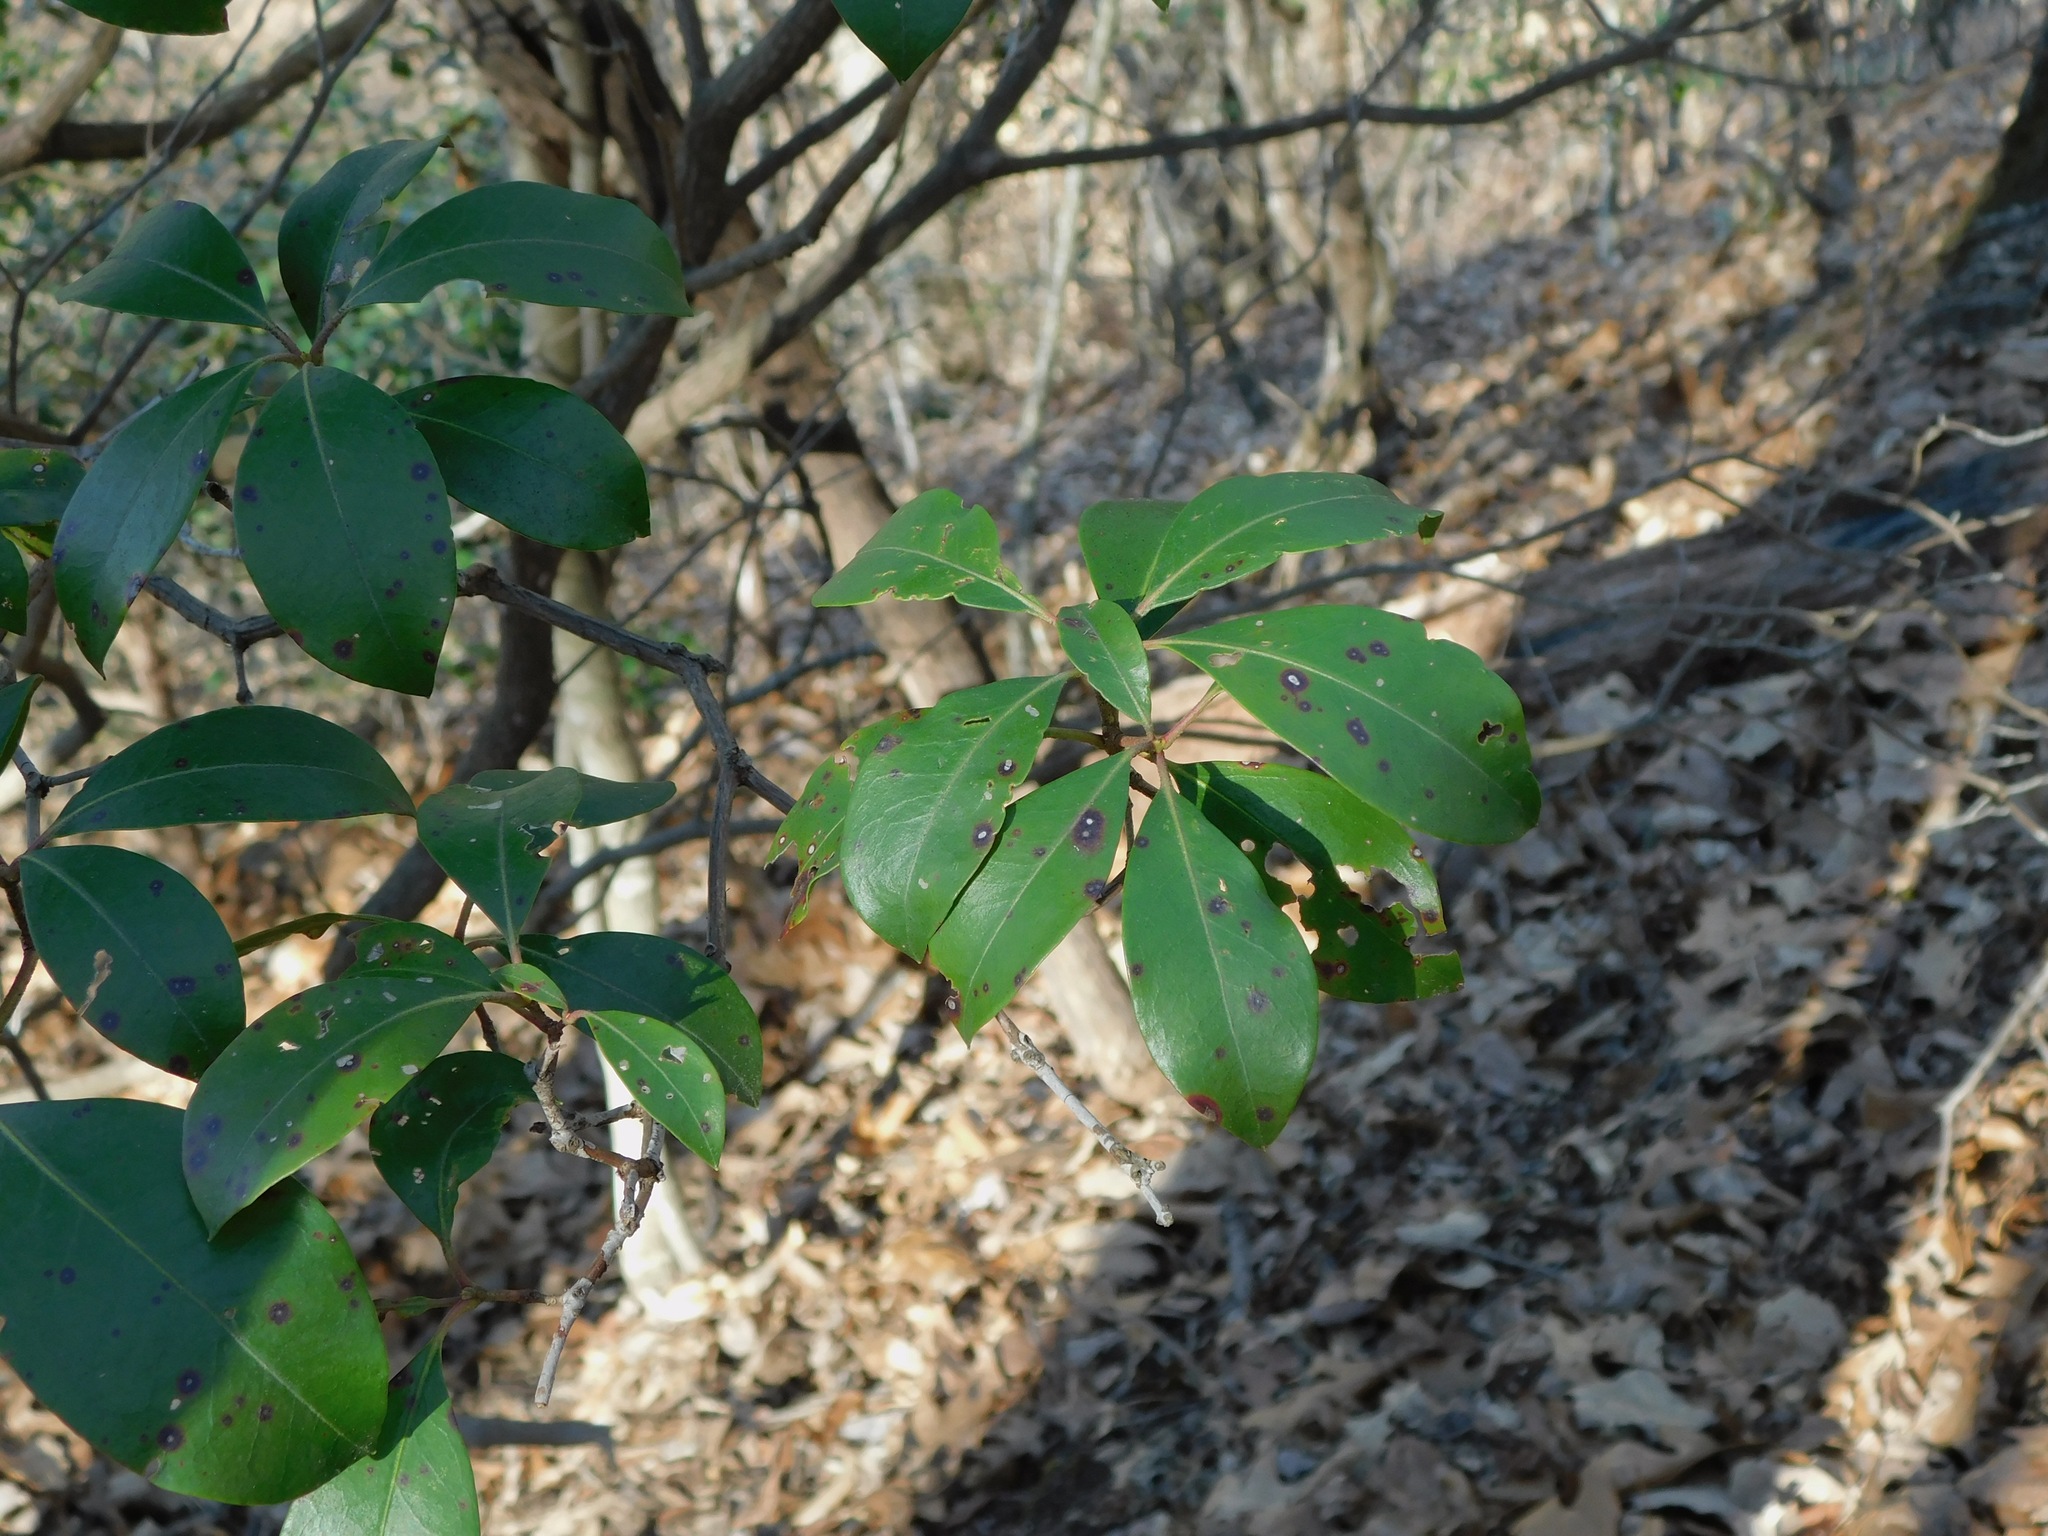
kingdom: Plantae
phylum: Tracheophyta
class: Magnoliopsida
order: Ericales
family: Ericaceae
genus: Kalmia
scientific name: Kalmia latifolia
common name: Mountain-laurel
